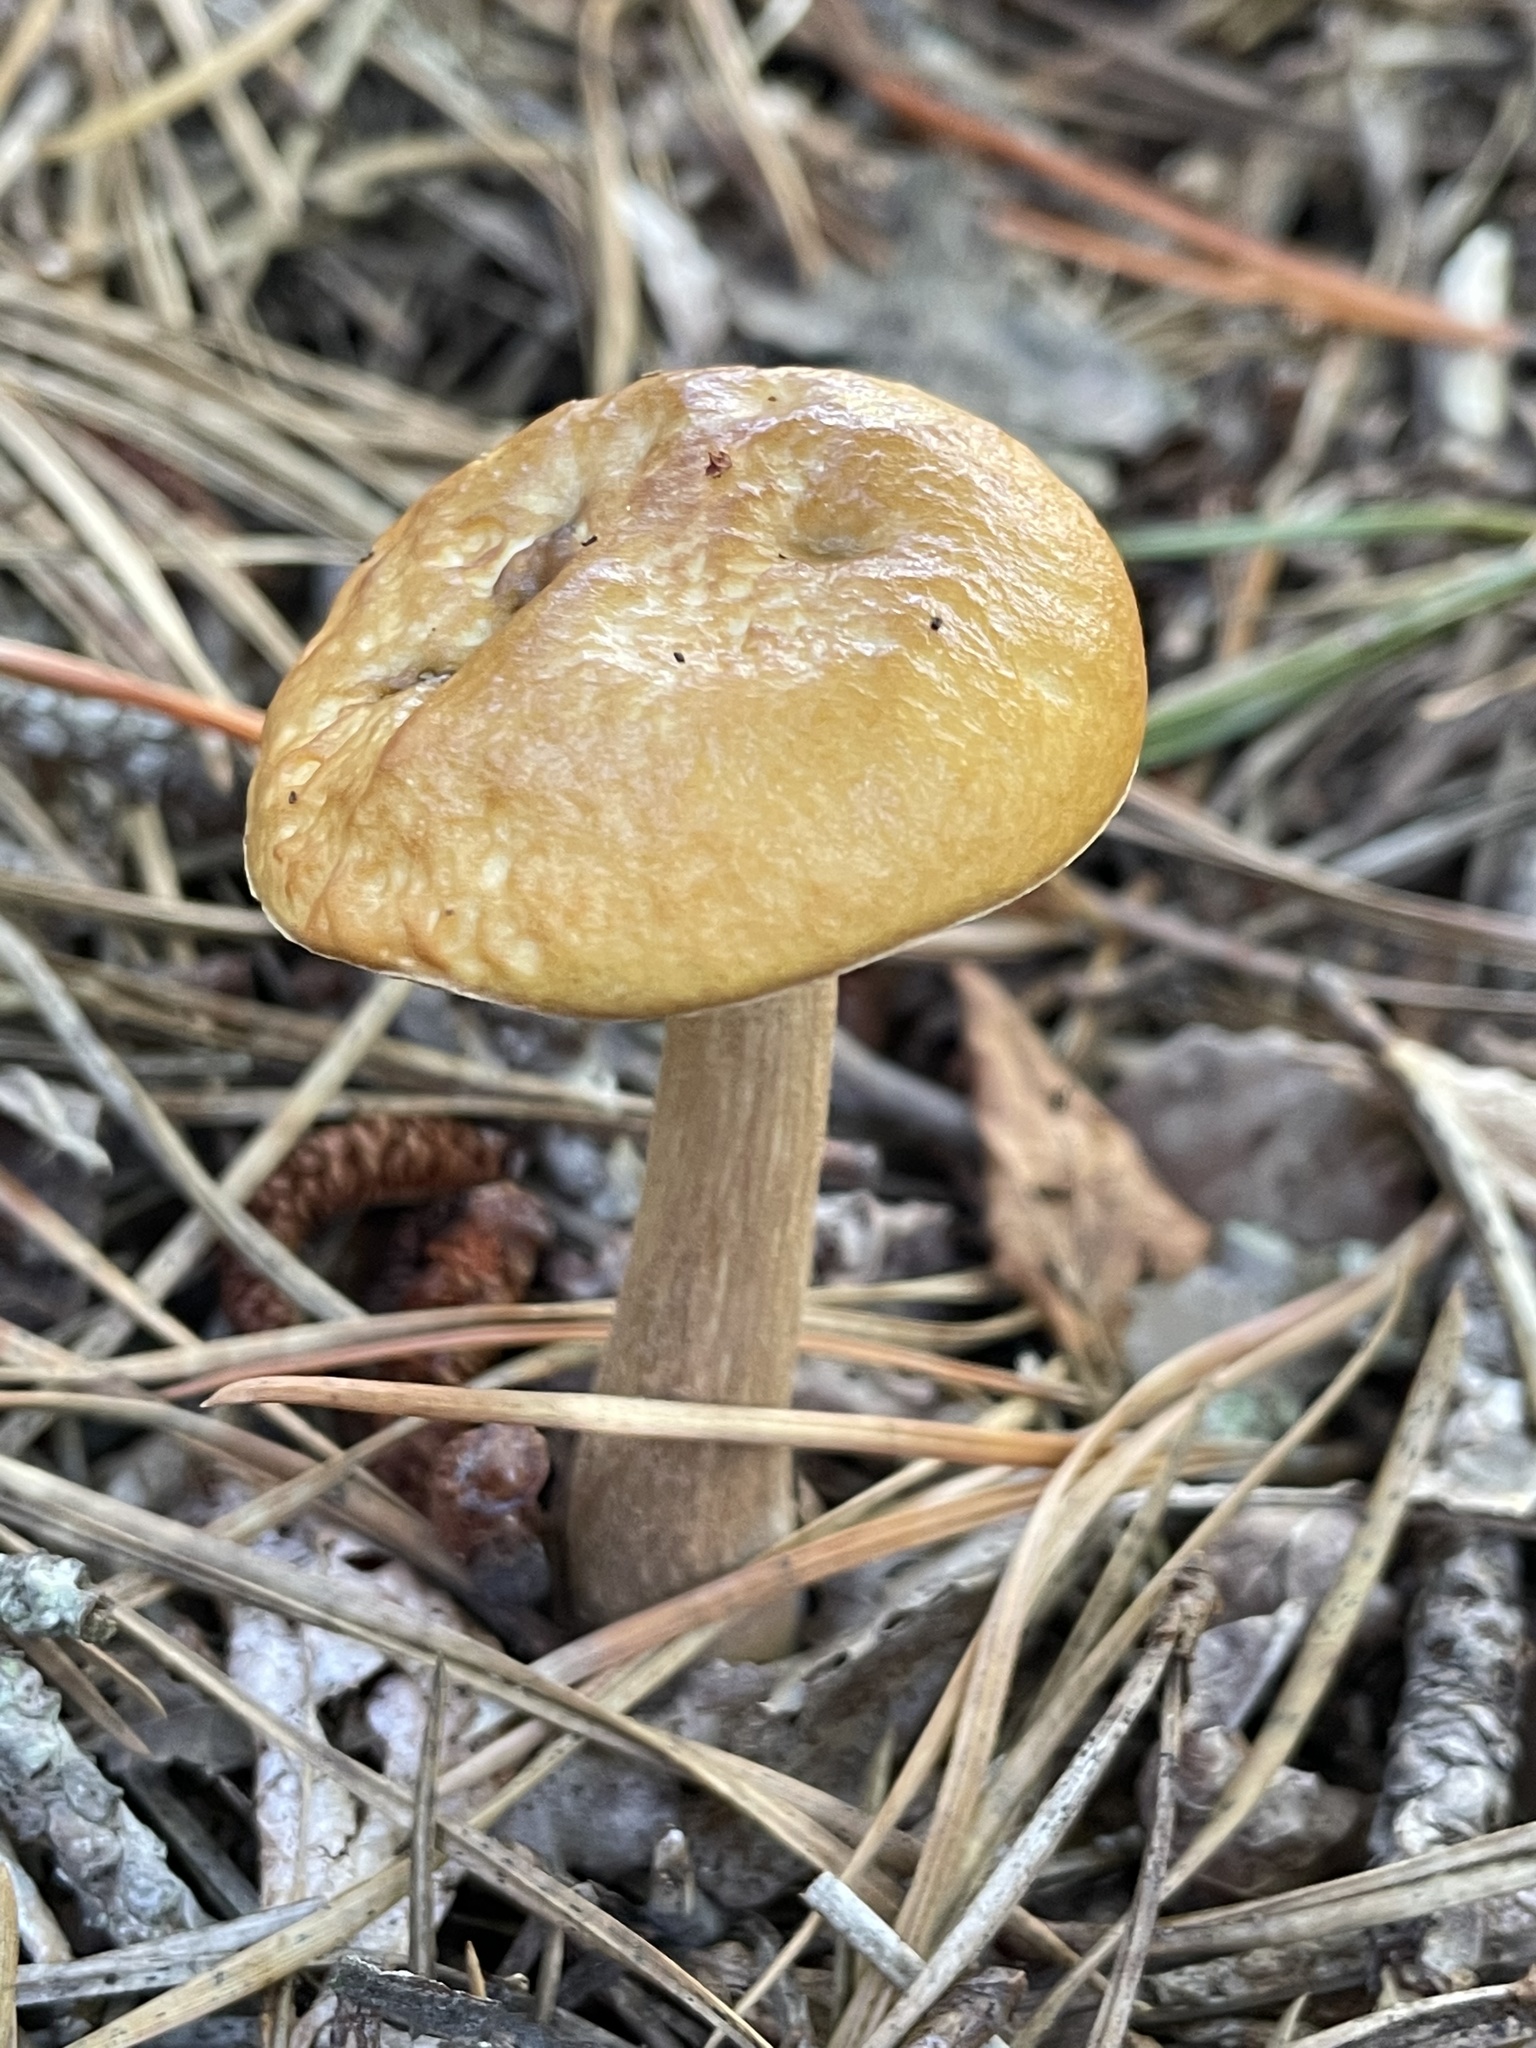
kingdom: Fungi
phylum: Basidiomycota
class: Agaricomycetes
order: Boletales
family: Boletaceae
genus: Leccinum
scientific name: Leccinum longicurvipes
